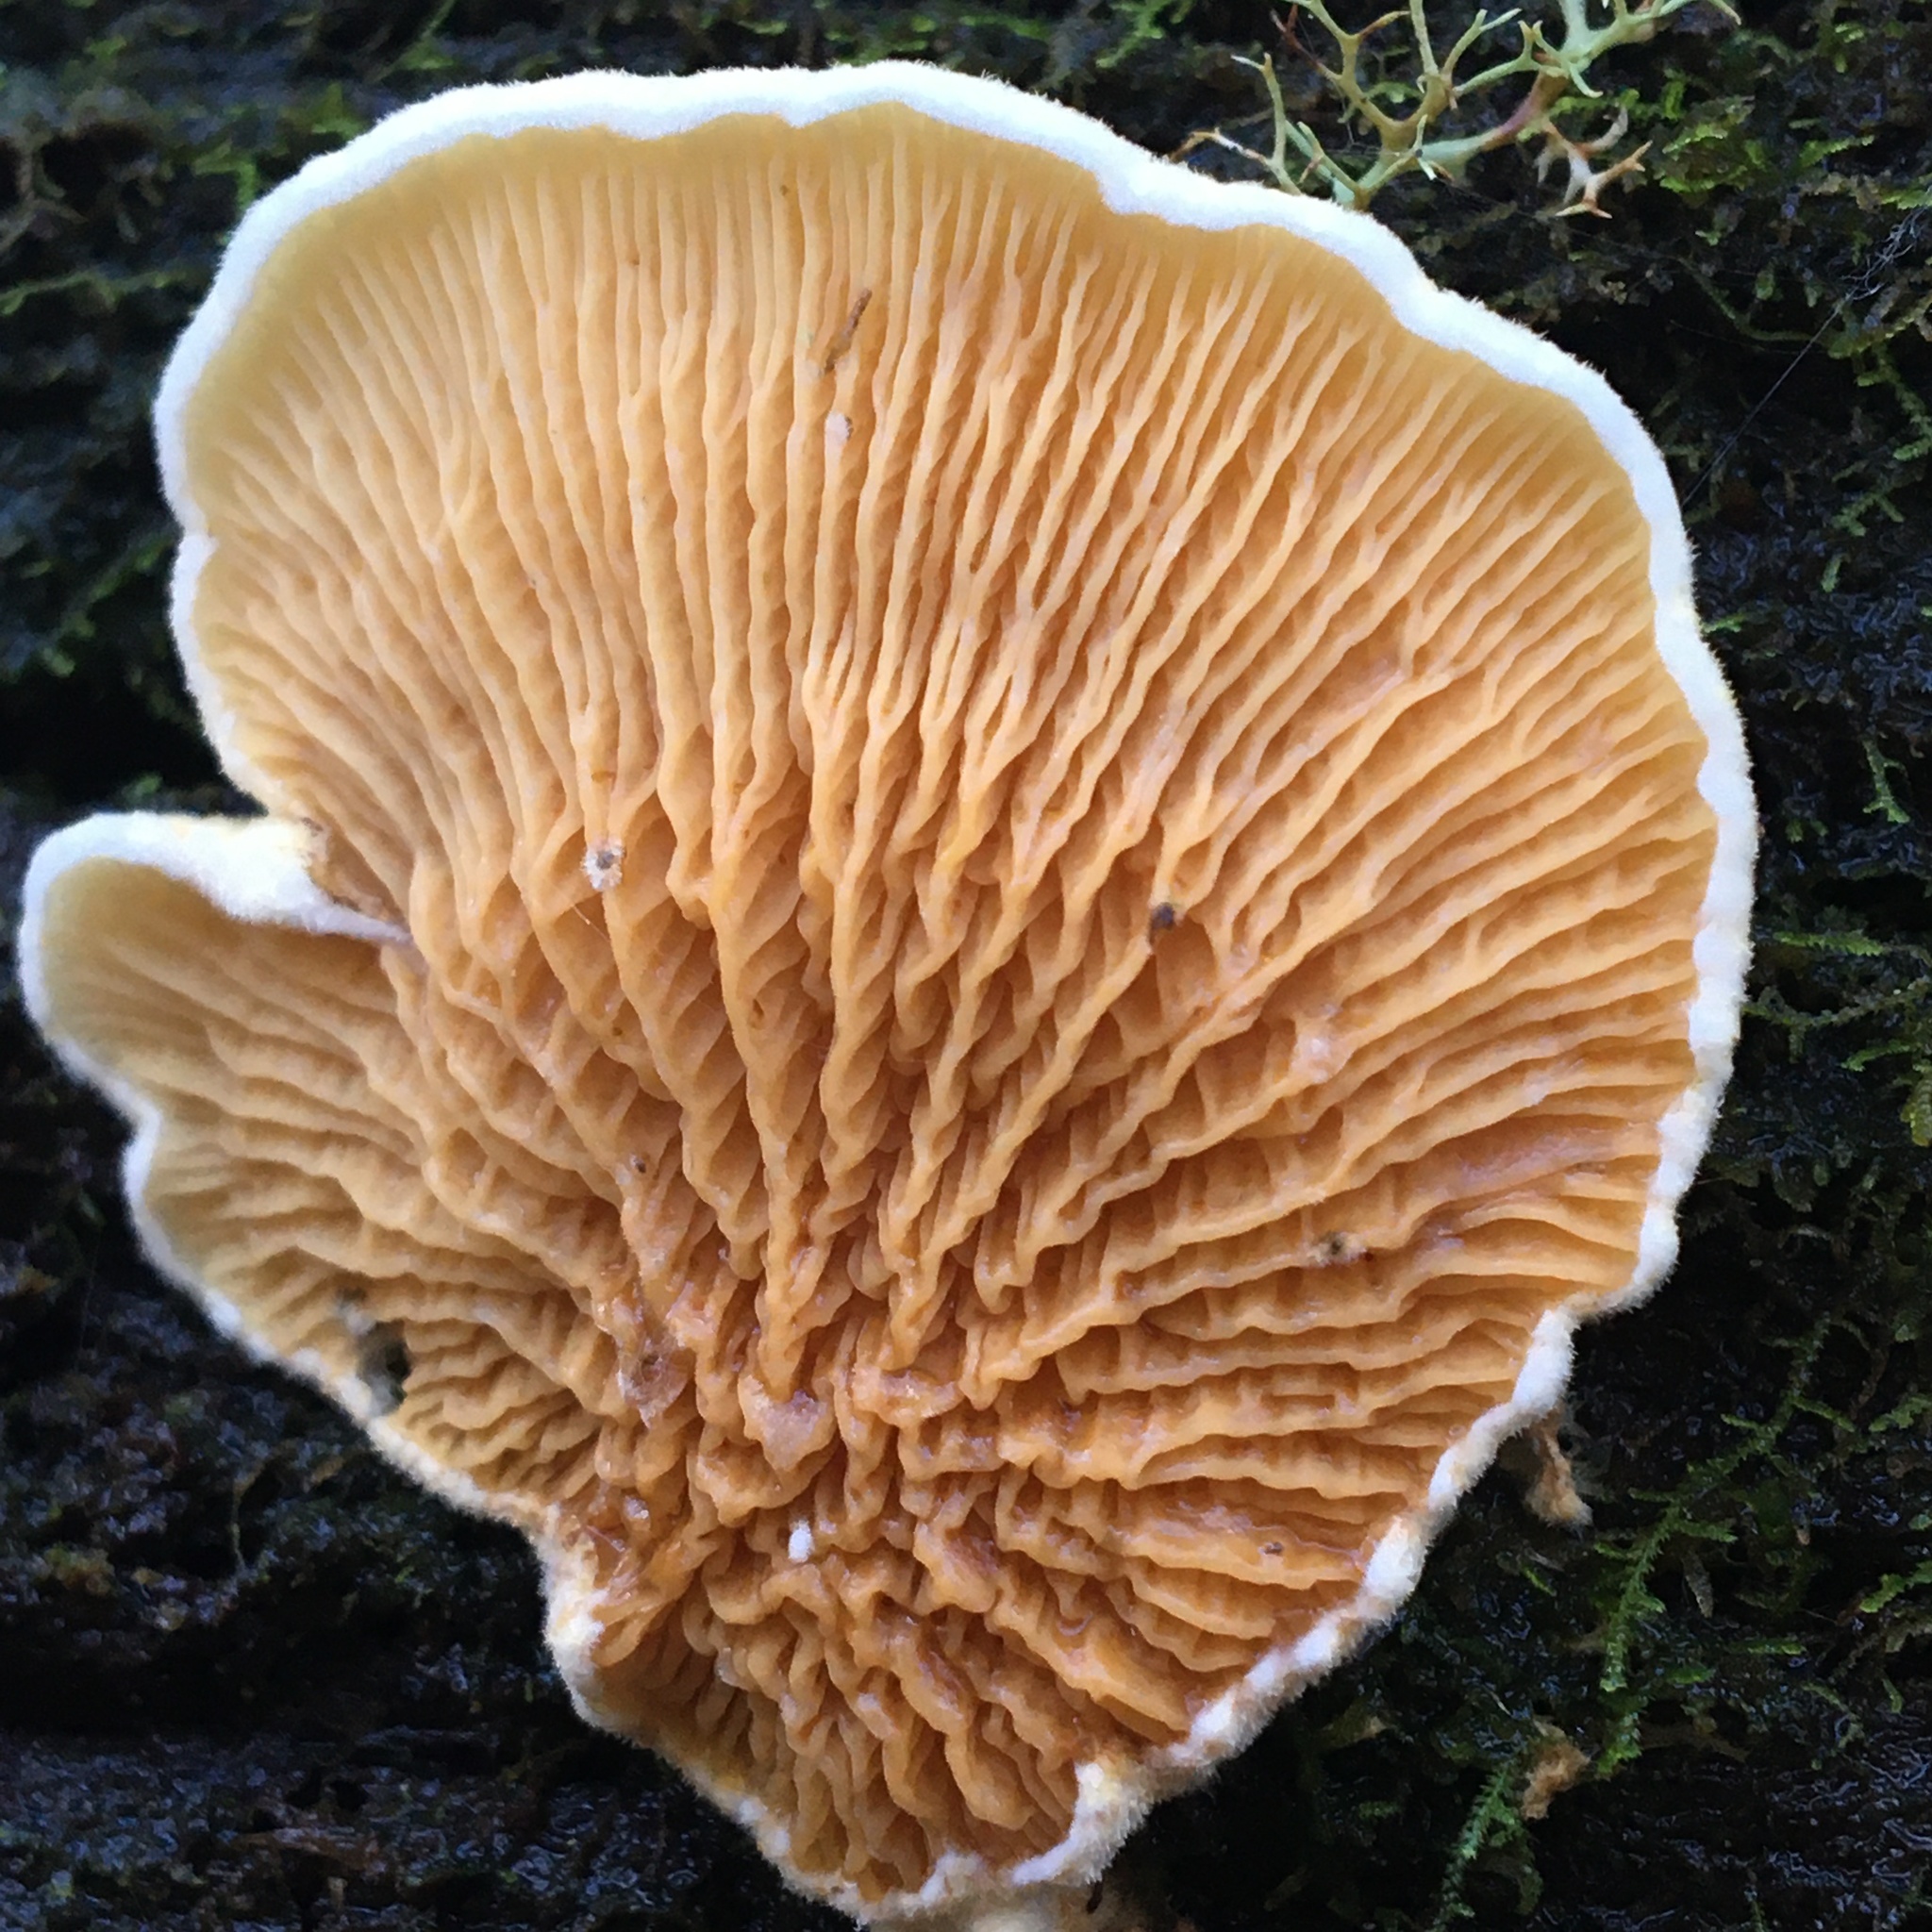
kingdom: Fungi
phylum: Basidiomycota
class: Agaricomycetes
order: Boletales
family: Paxillaceae
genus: Meiorganum
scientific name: Meiorganum curtisii
